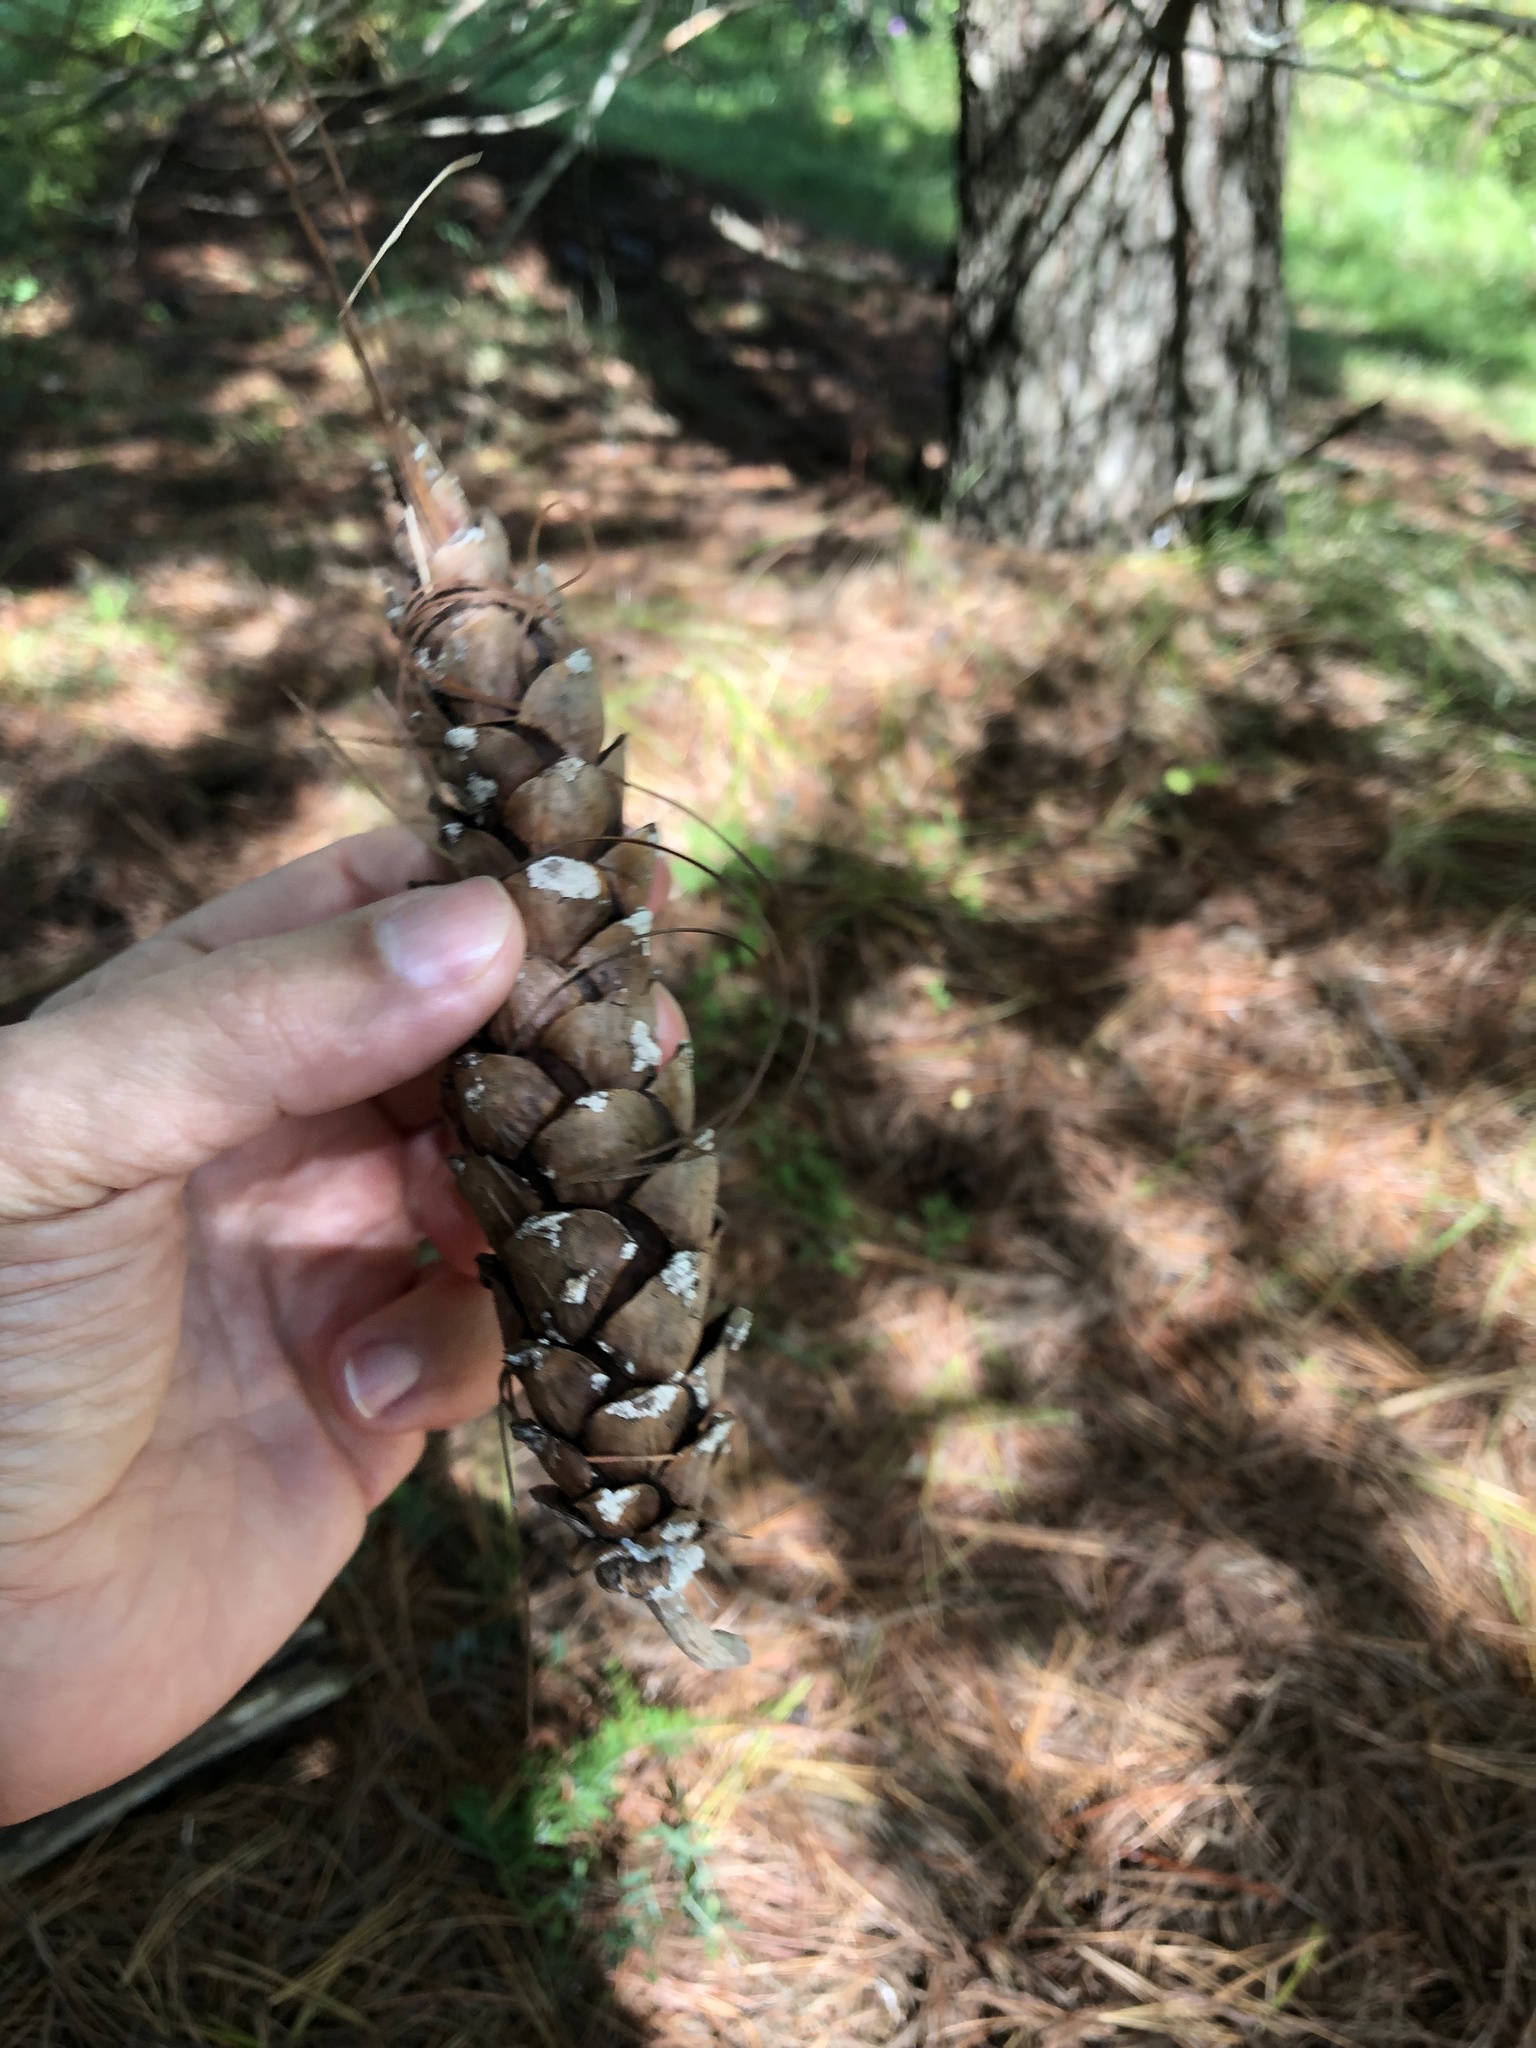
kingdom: Plantae
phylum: Tracheophyta
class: Pinopsida
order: Pinales
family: Pinaceae
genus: Pinus
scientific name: Pinus strobus
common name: Weymouth pine
